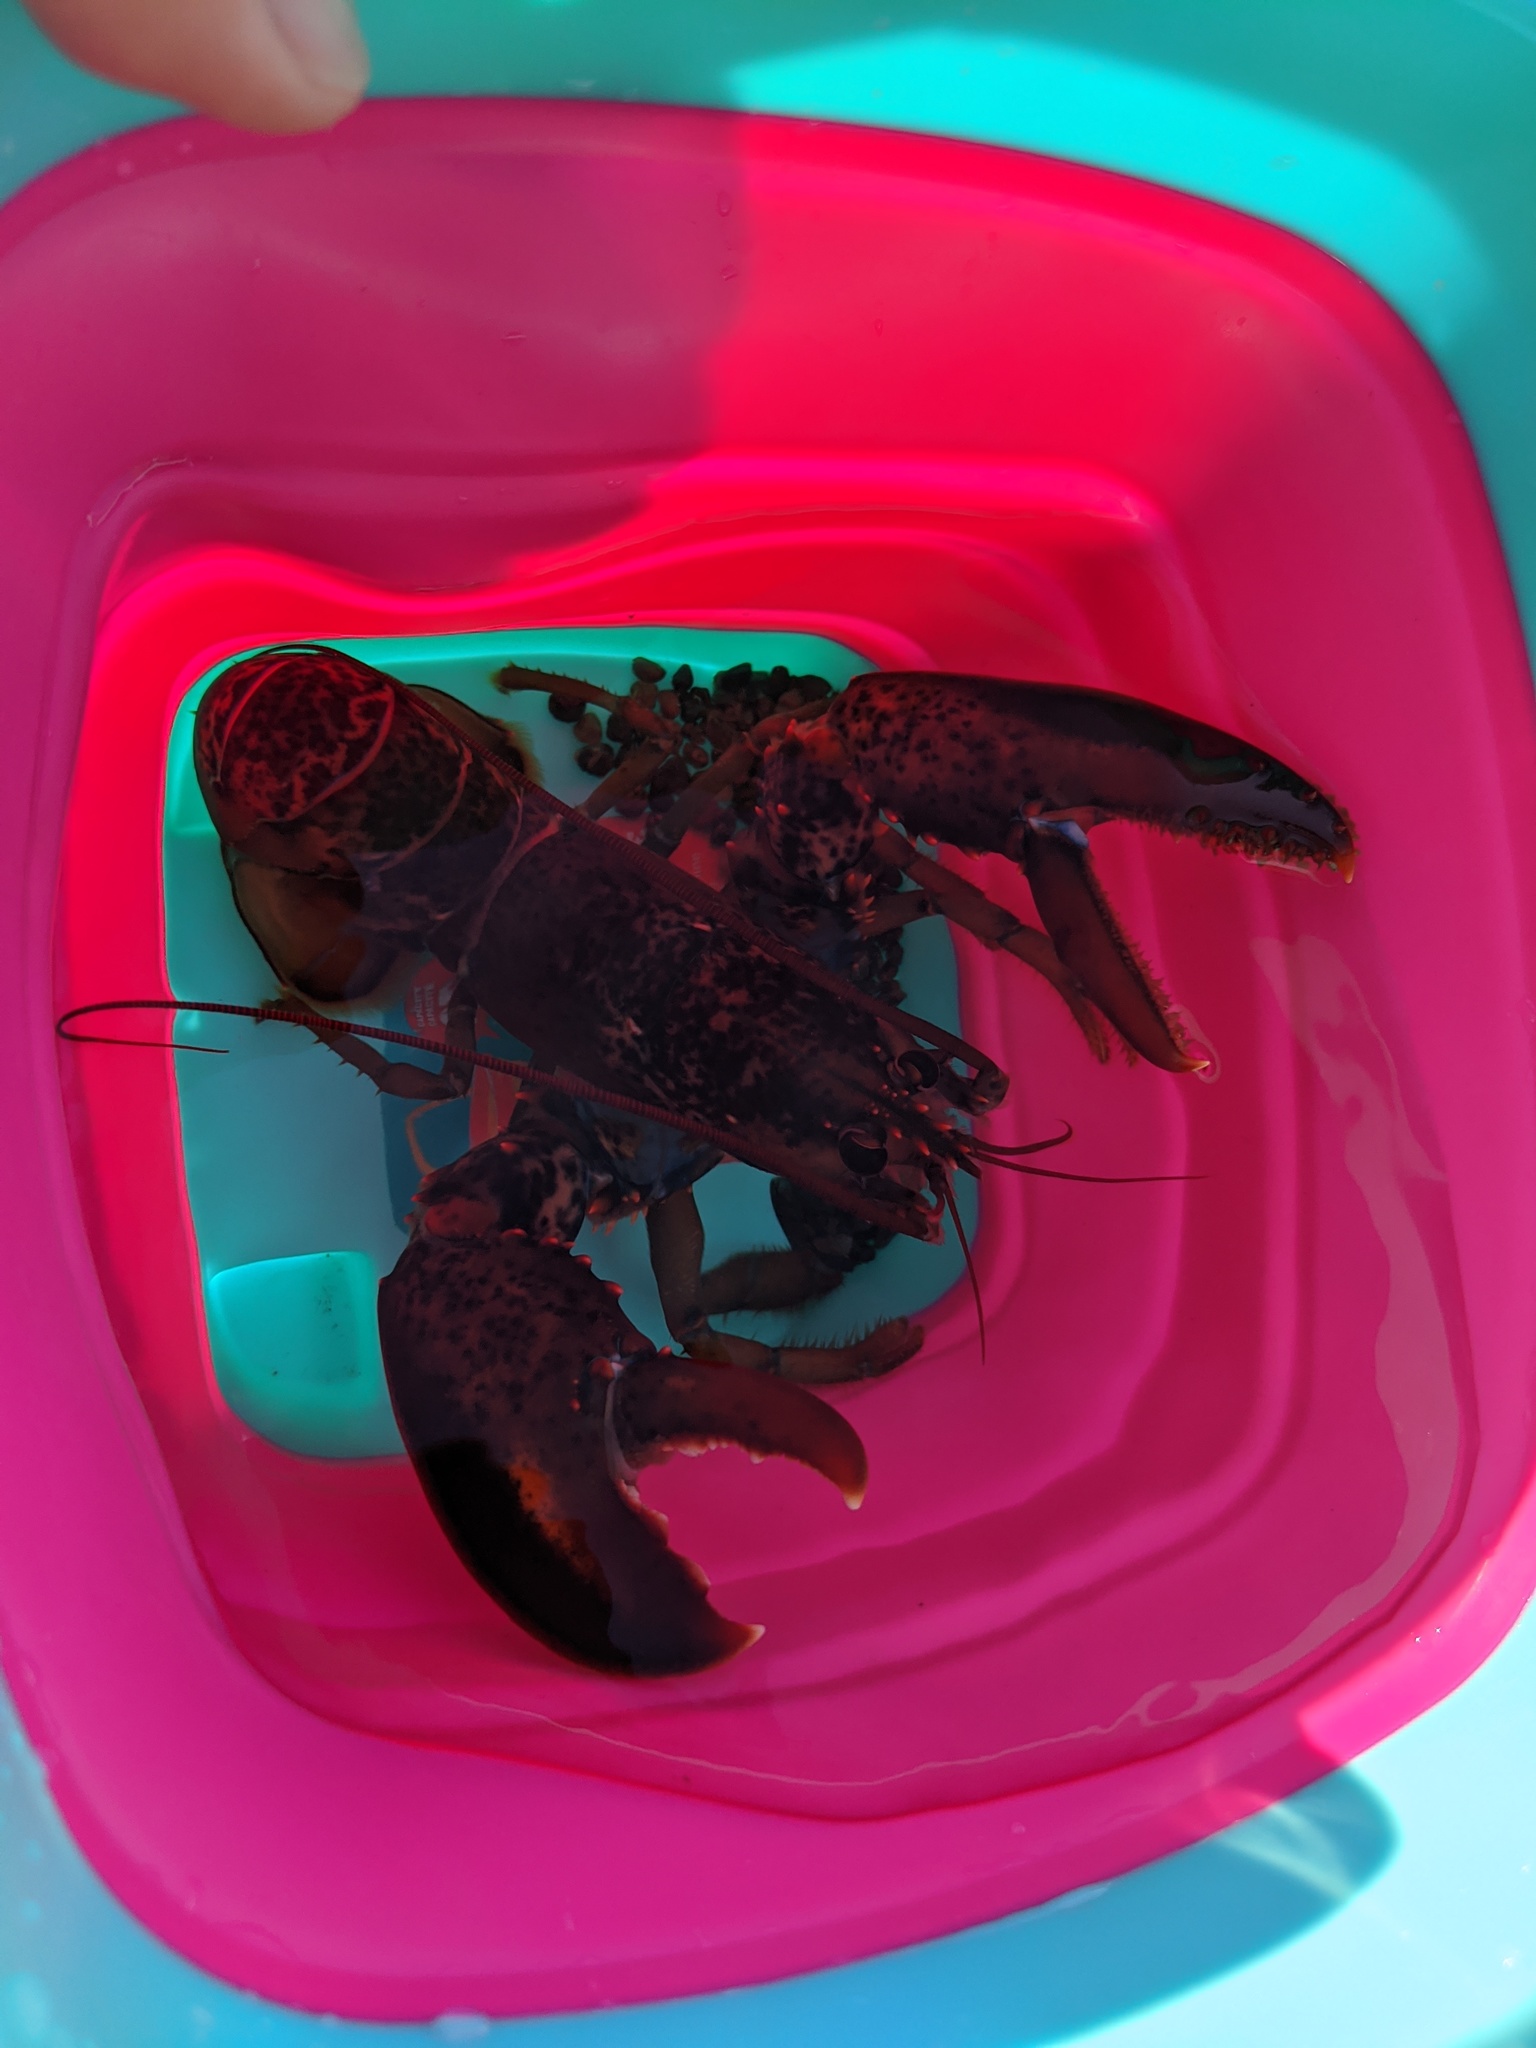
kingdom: Animalia
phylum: Arthropoda
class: Malacostraca
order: Decapoda
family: Nephropidae
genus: Homarus
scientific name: Homarus americanus
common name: American lobster
